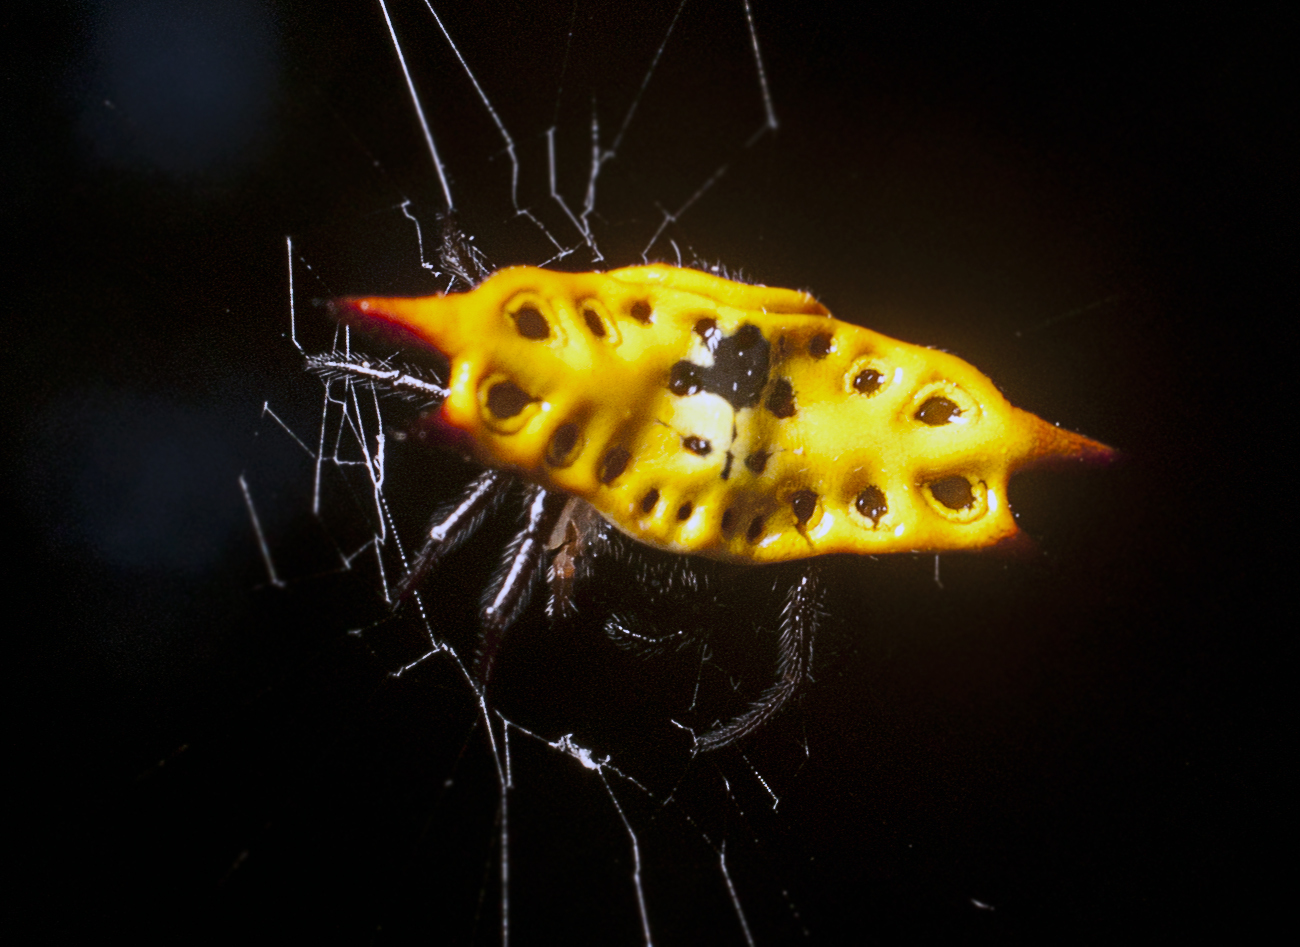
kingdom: Animalia
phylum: Arthropoda
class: Arachnida
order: Araneae
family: Araneidae
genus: Gasteracantha
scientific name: Gasteracantha quadrispinosa
